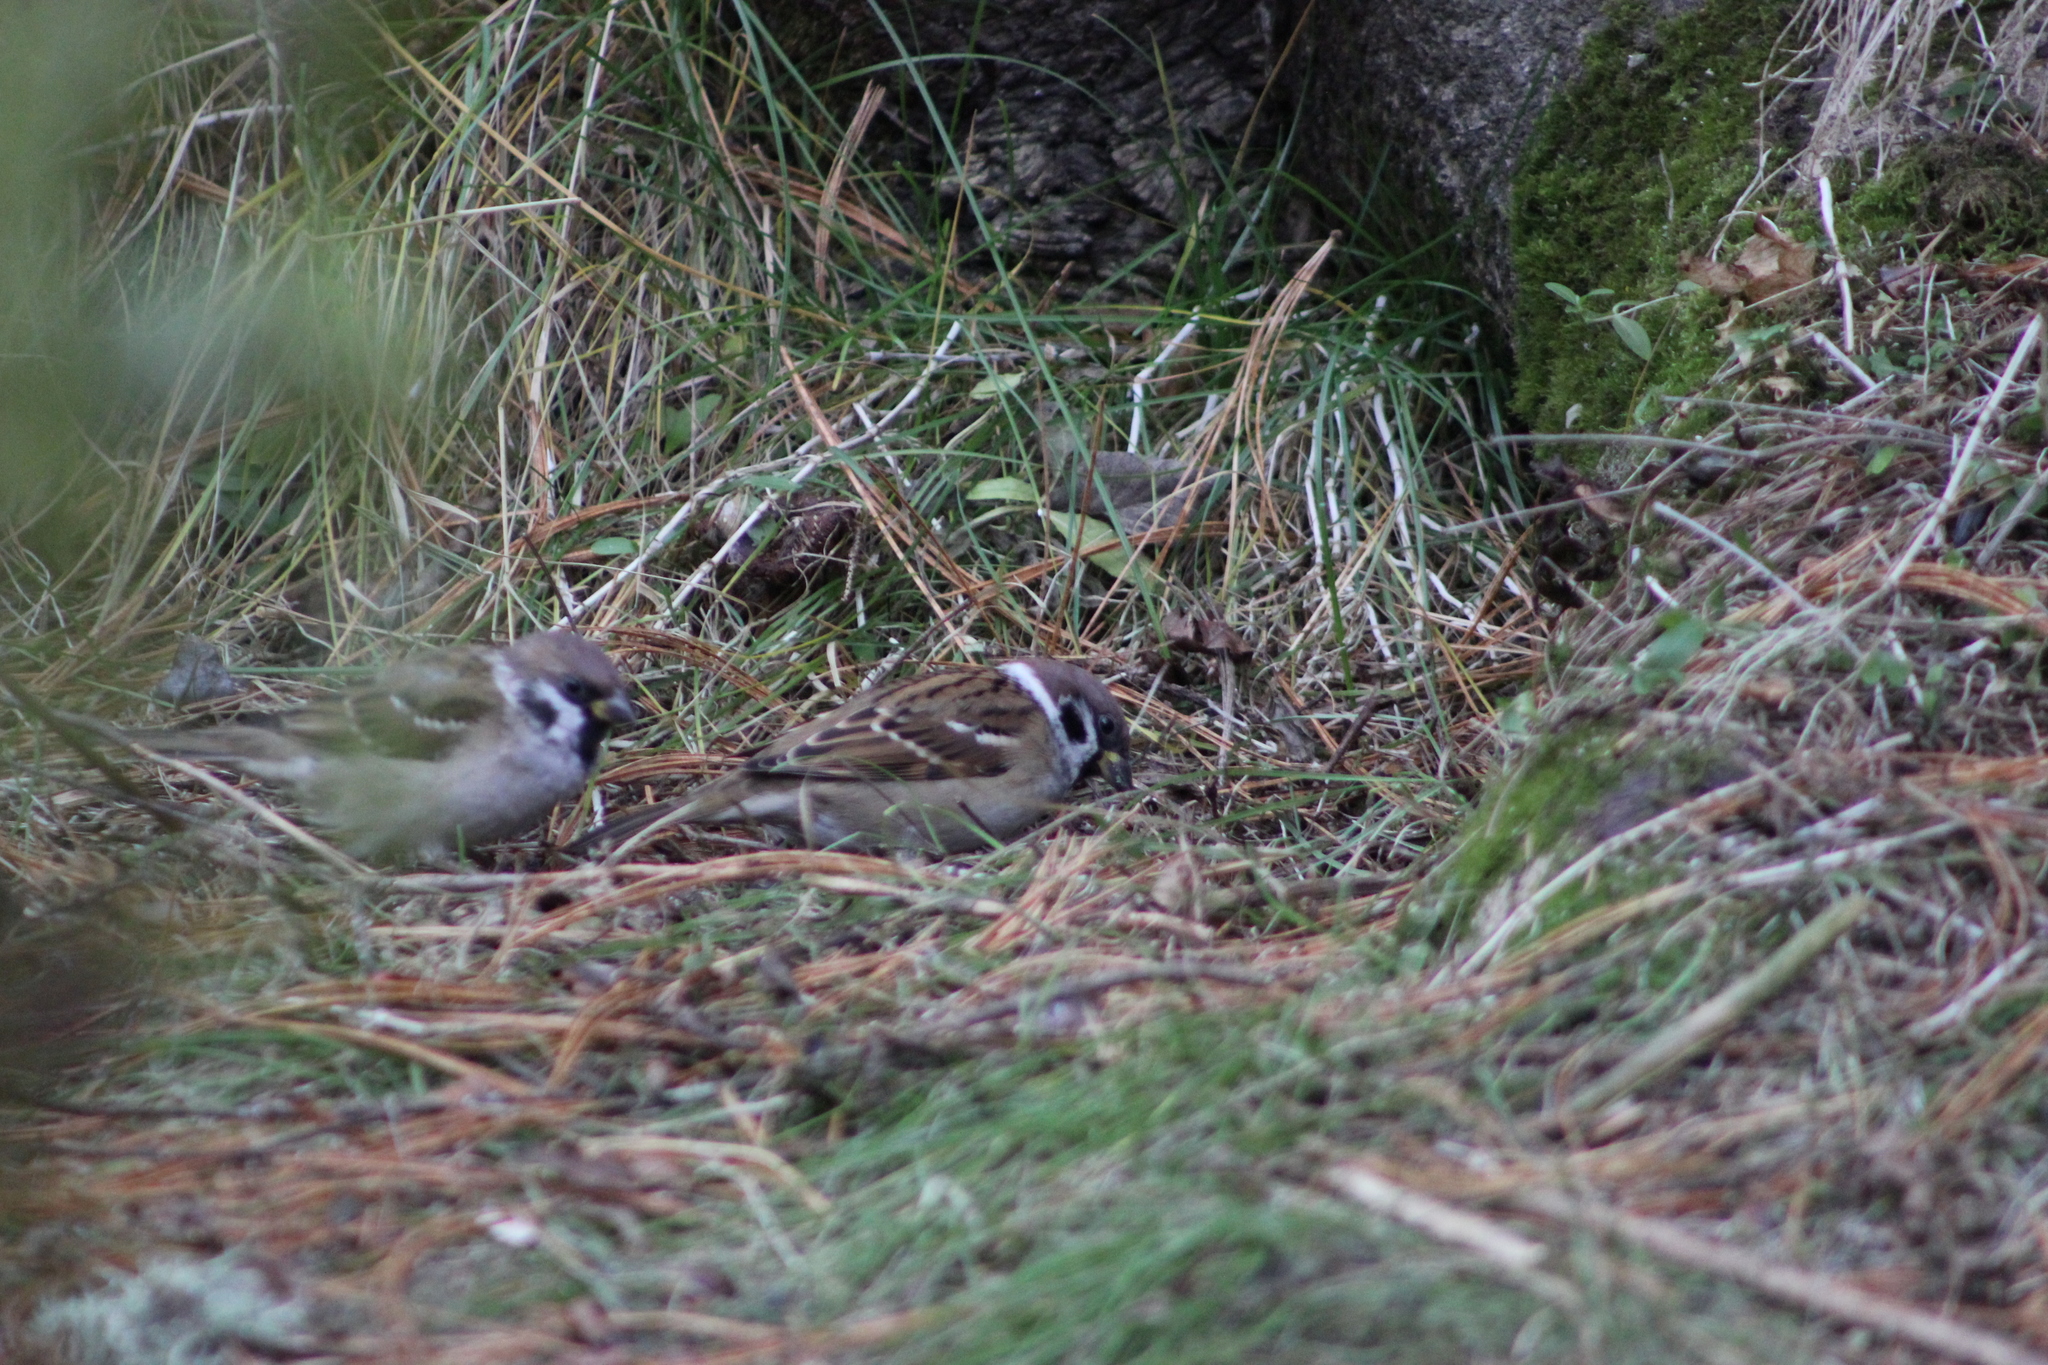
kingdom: Animalia
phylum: Chordata
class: Aves
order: Passeriformes
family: Passeridae
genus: Passer
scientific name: Passer montanus
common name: Eurasian tree sparrow
